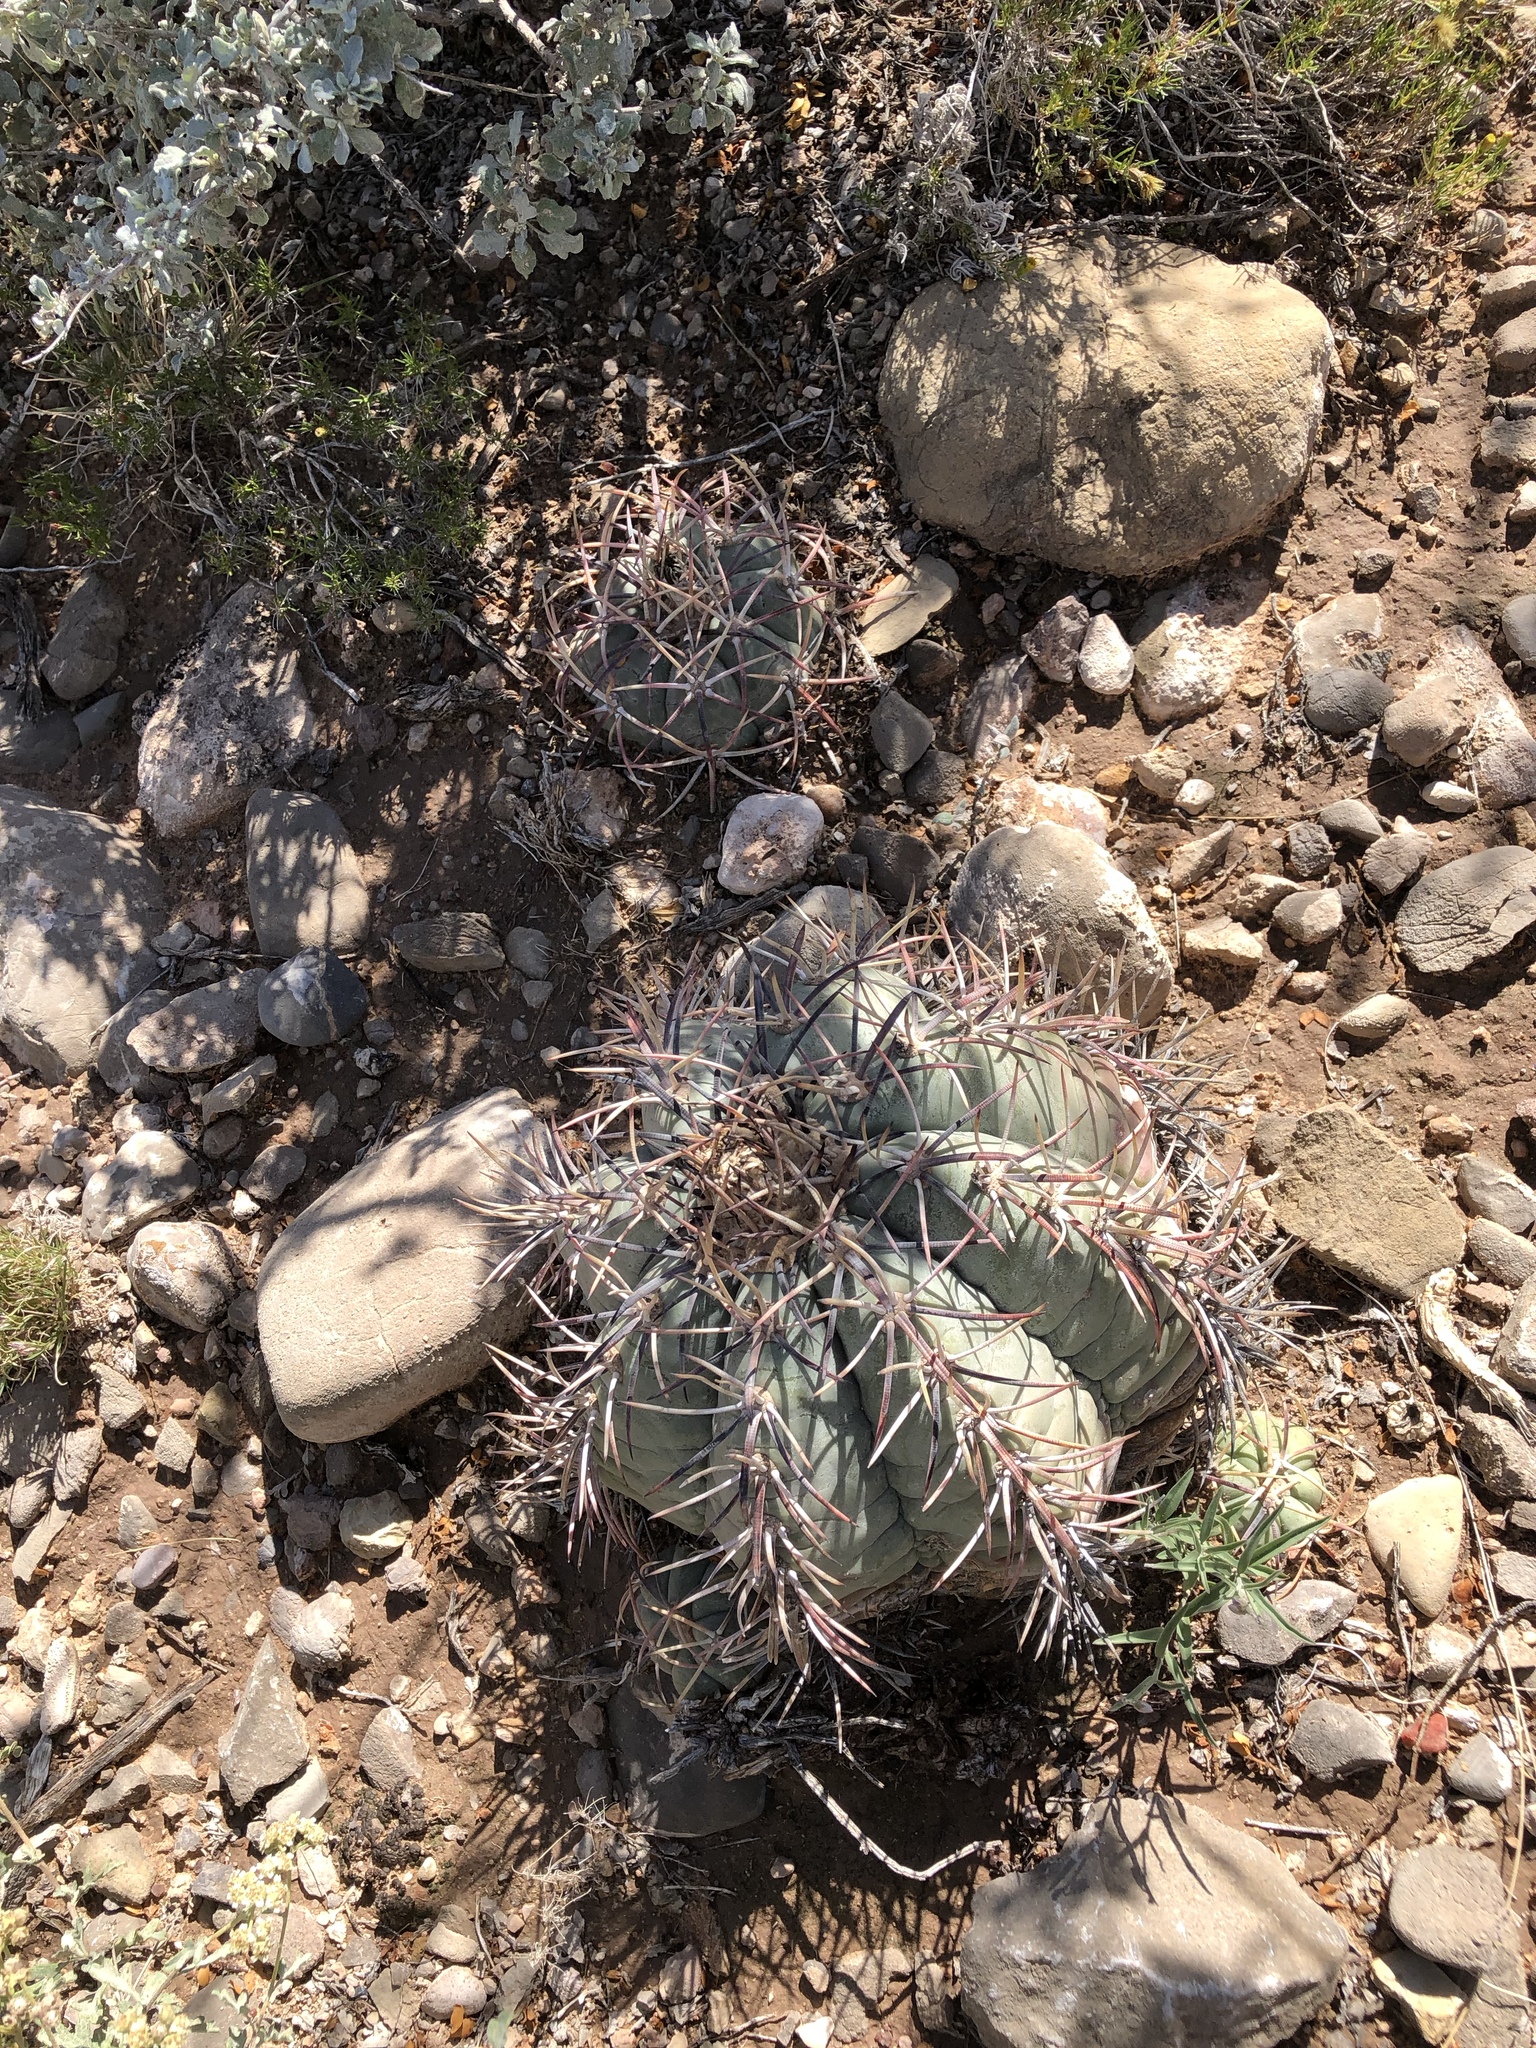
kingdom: Plantae
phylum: Tracheophyta
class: Magnoliopsida
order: Caryophyllales
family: Cactaceae
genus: Echinocactus
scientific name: Echinocactus horizonthalonius
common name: Devilshead
